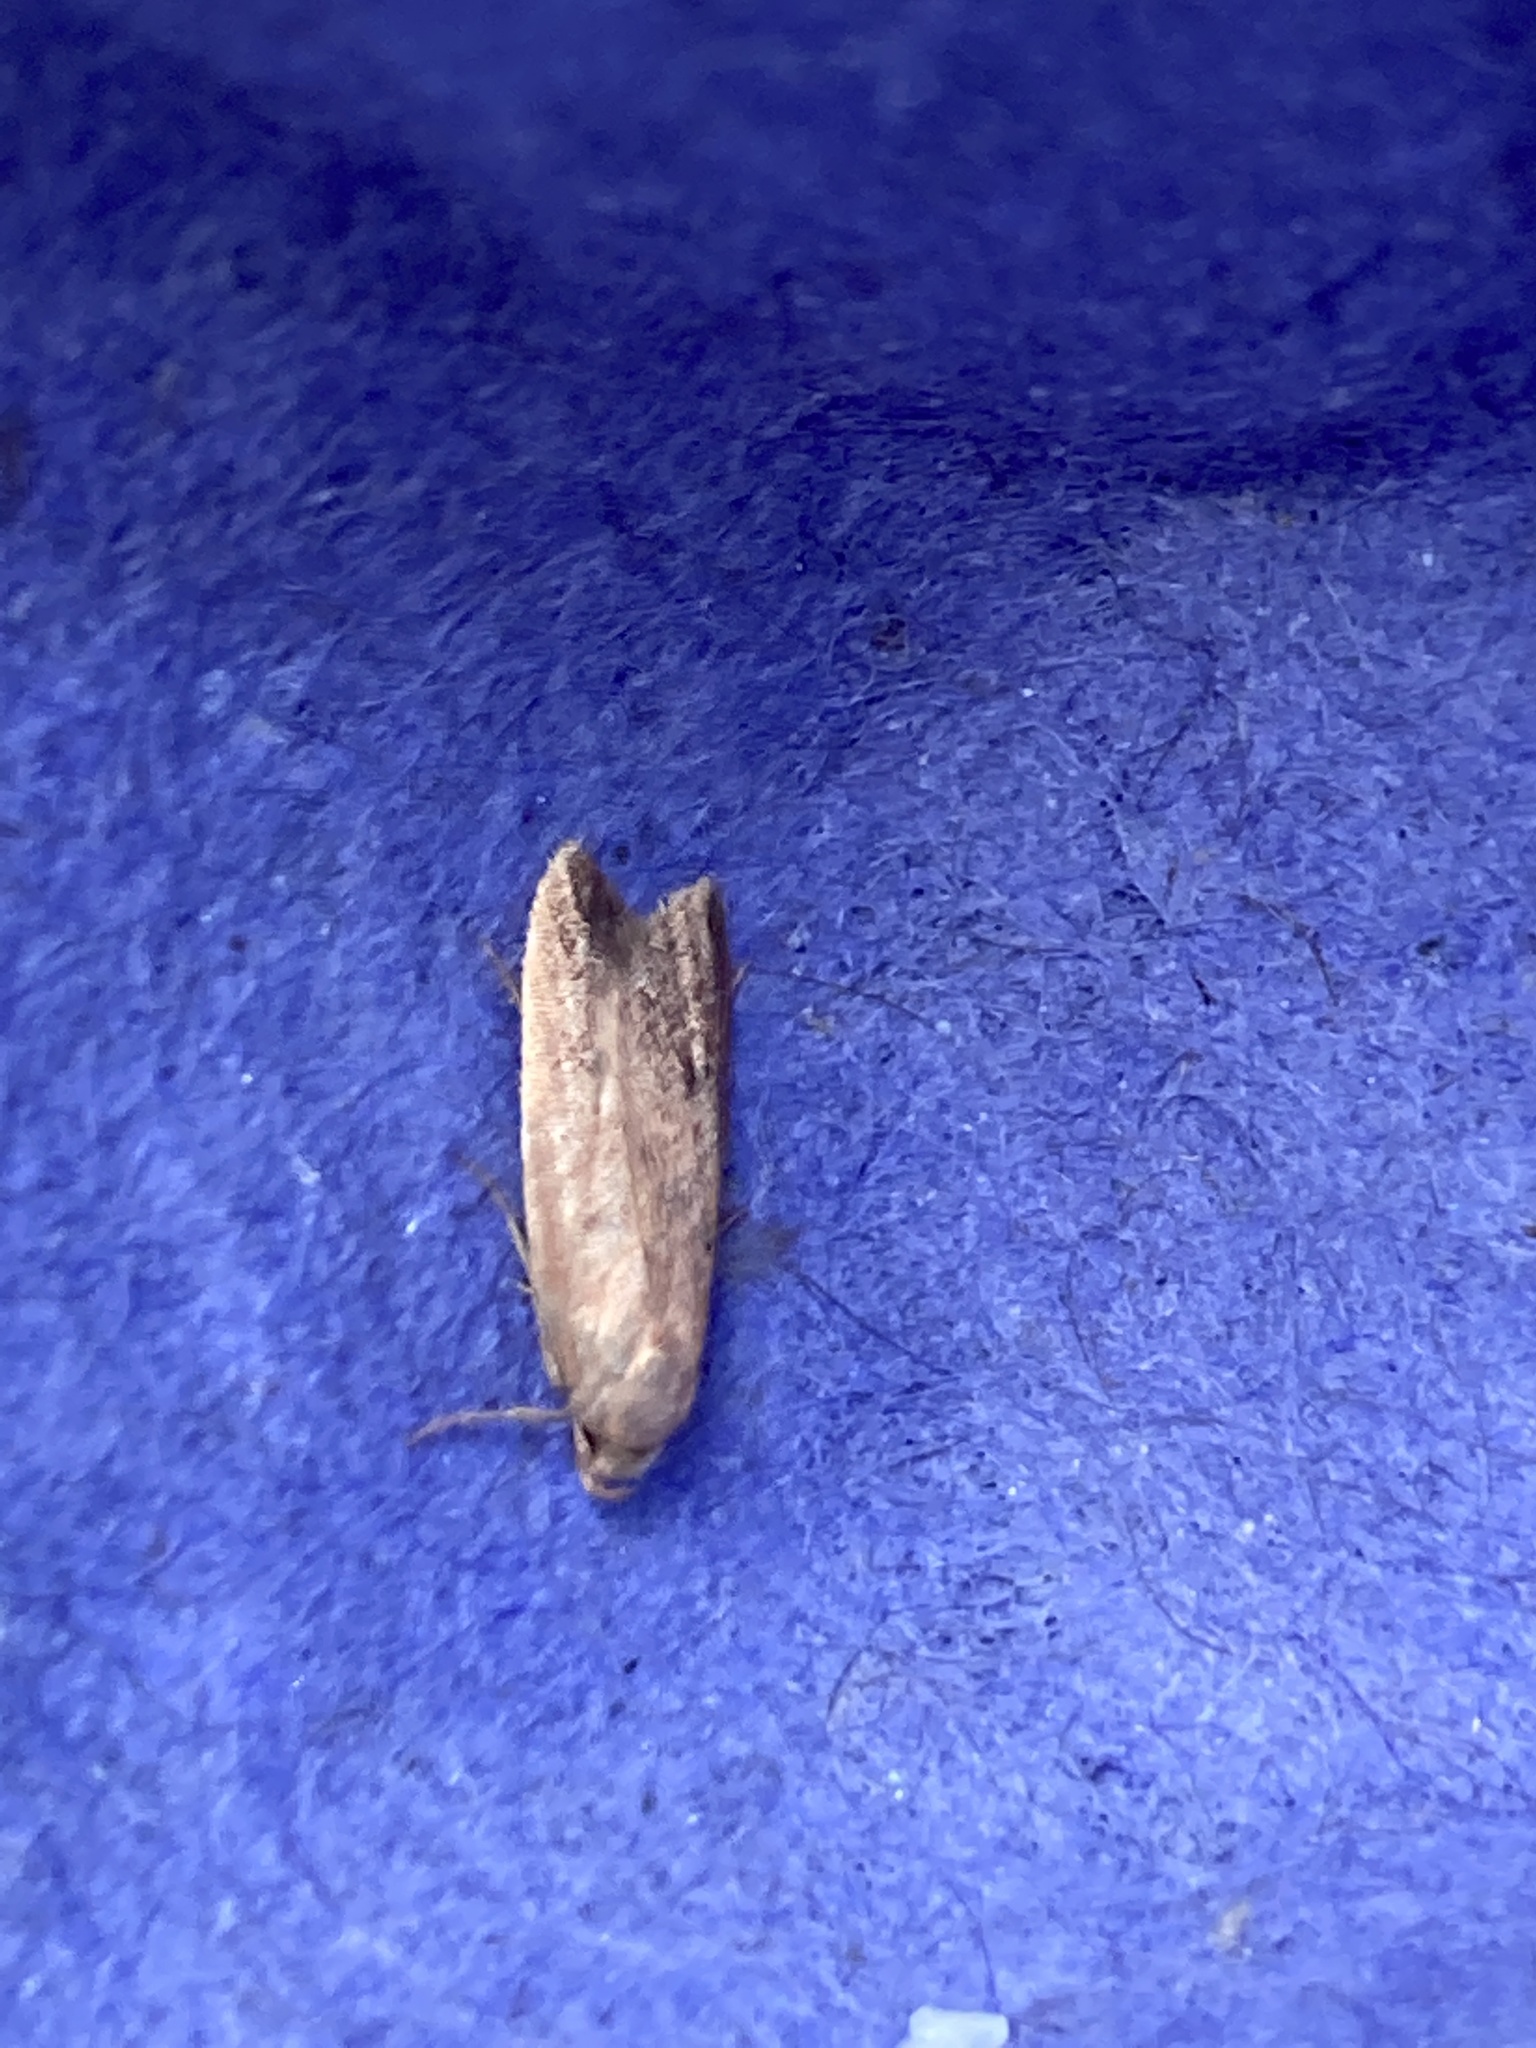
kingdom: Animalia
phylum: Arthropoda
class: Insecta
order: Lepidoptera
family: Oecophoridae
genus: Tachystola
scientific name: Tachystola acroxantha
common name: Ruddy streak
